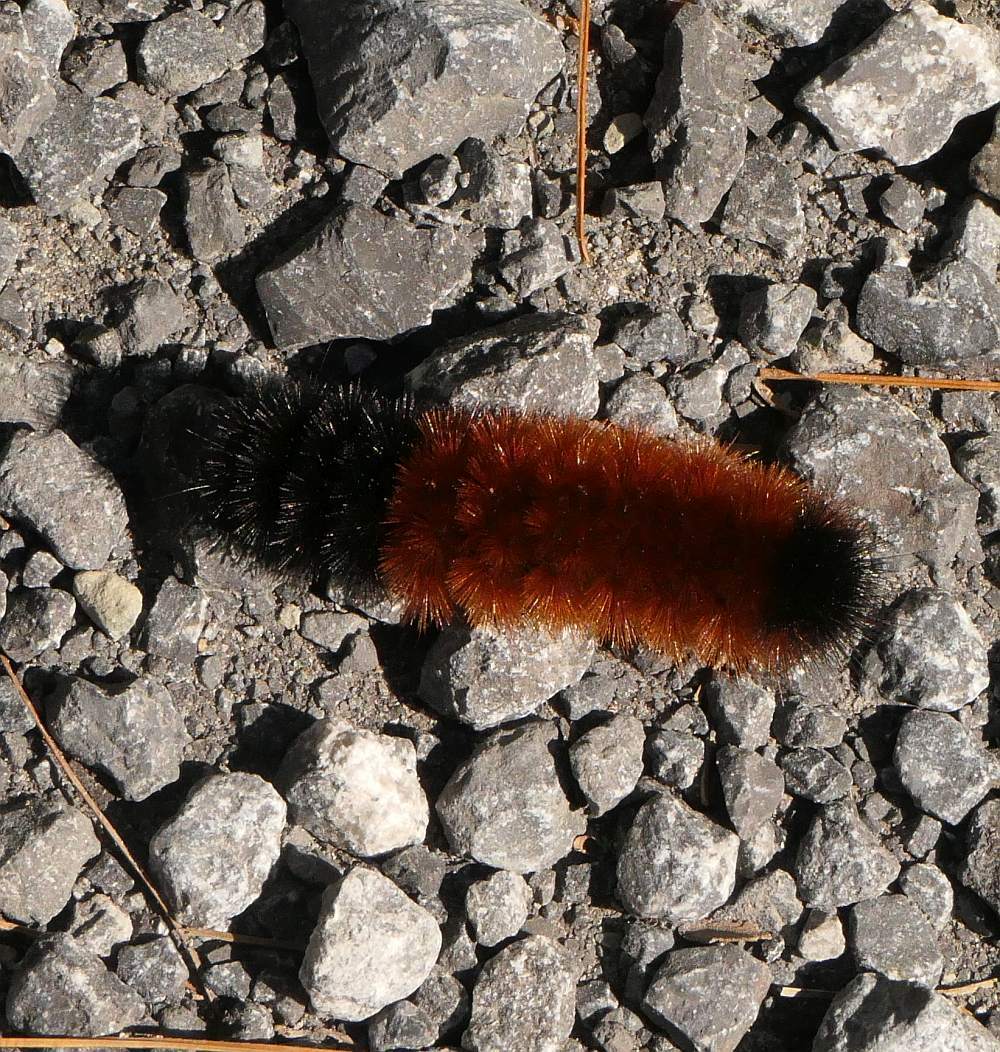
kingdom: Animalia
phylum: Arthropoda
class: Insecta
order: Lepidoptera
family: Erebidae
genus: Pyrrharctia
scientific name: Pyrrharctia isabella
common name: Isabella tiger moth
